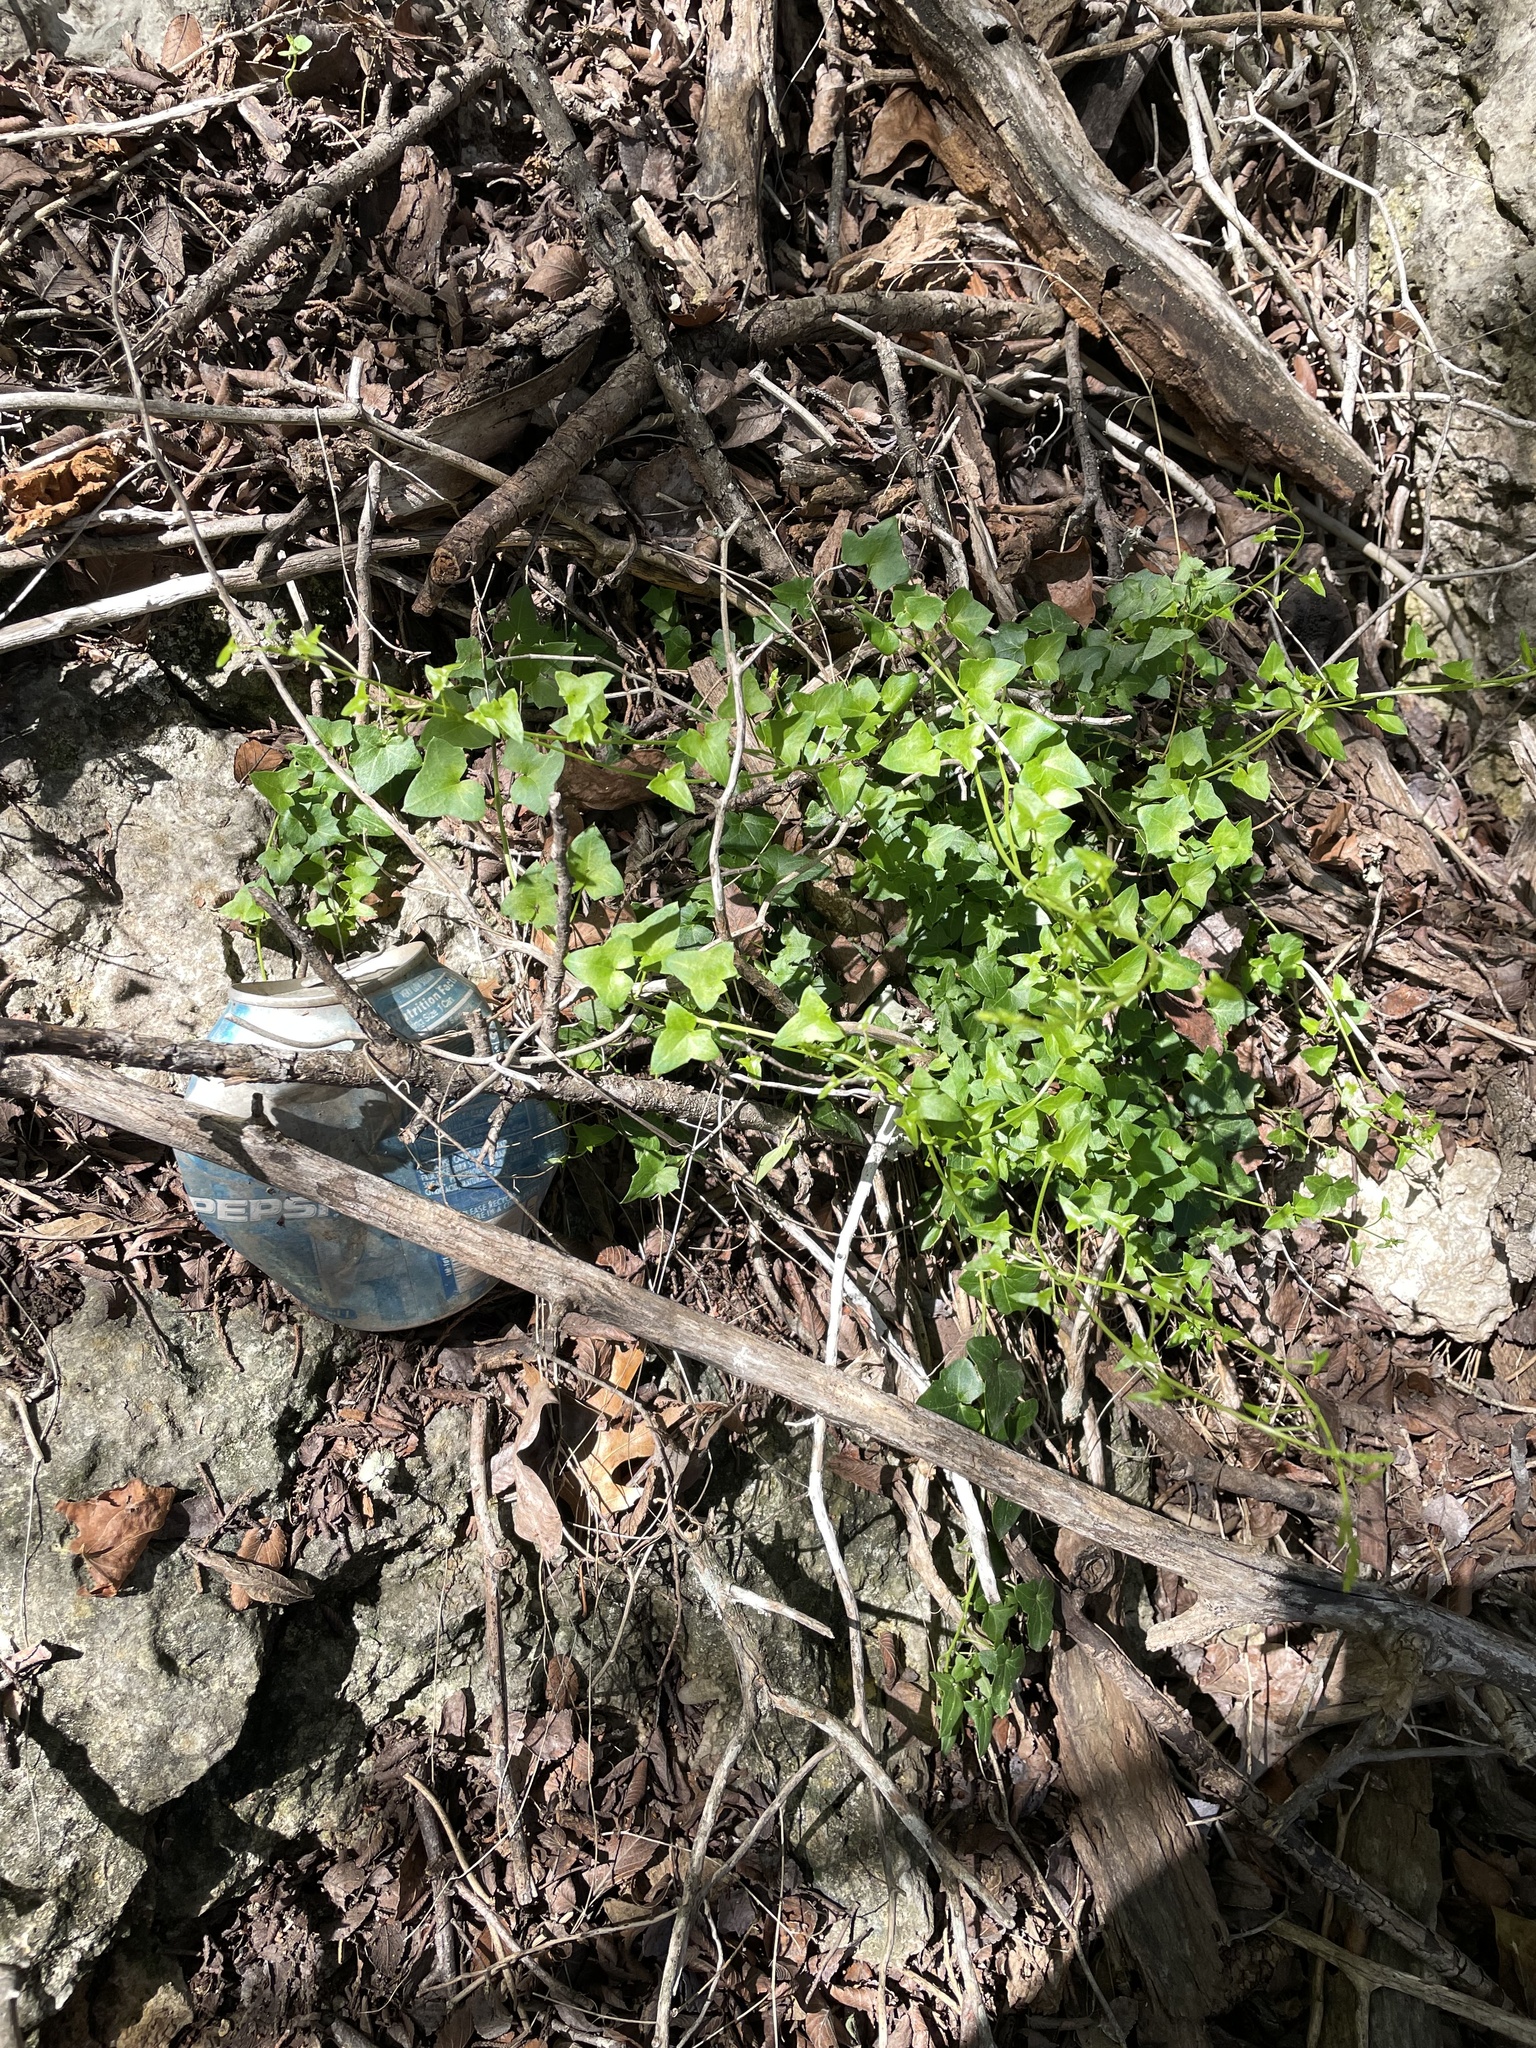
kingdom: Plantae
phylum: Tracheophyta
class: Magnoliopsida
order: Lamiales
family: Plantaginaceae
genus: Maurandella
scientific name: Maurandella antirrhiniflora
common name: Violet twining-snapdragon
